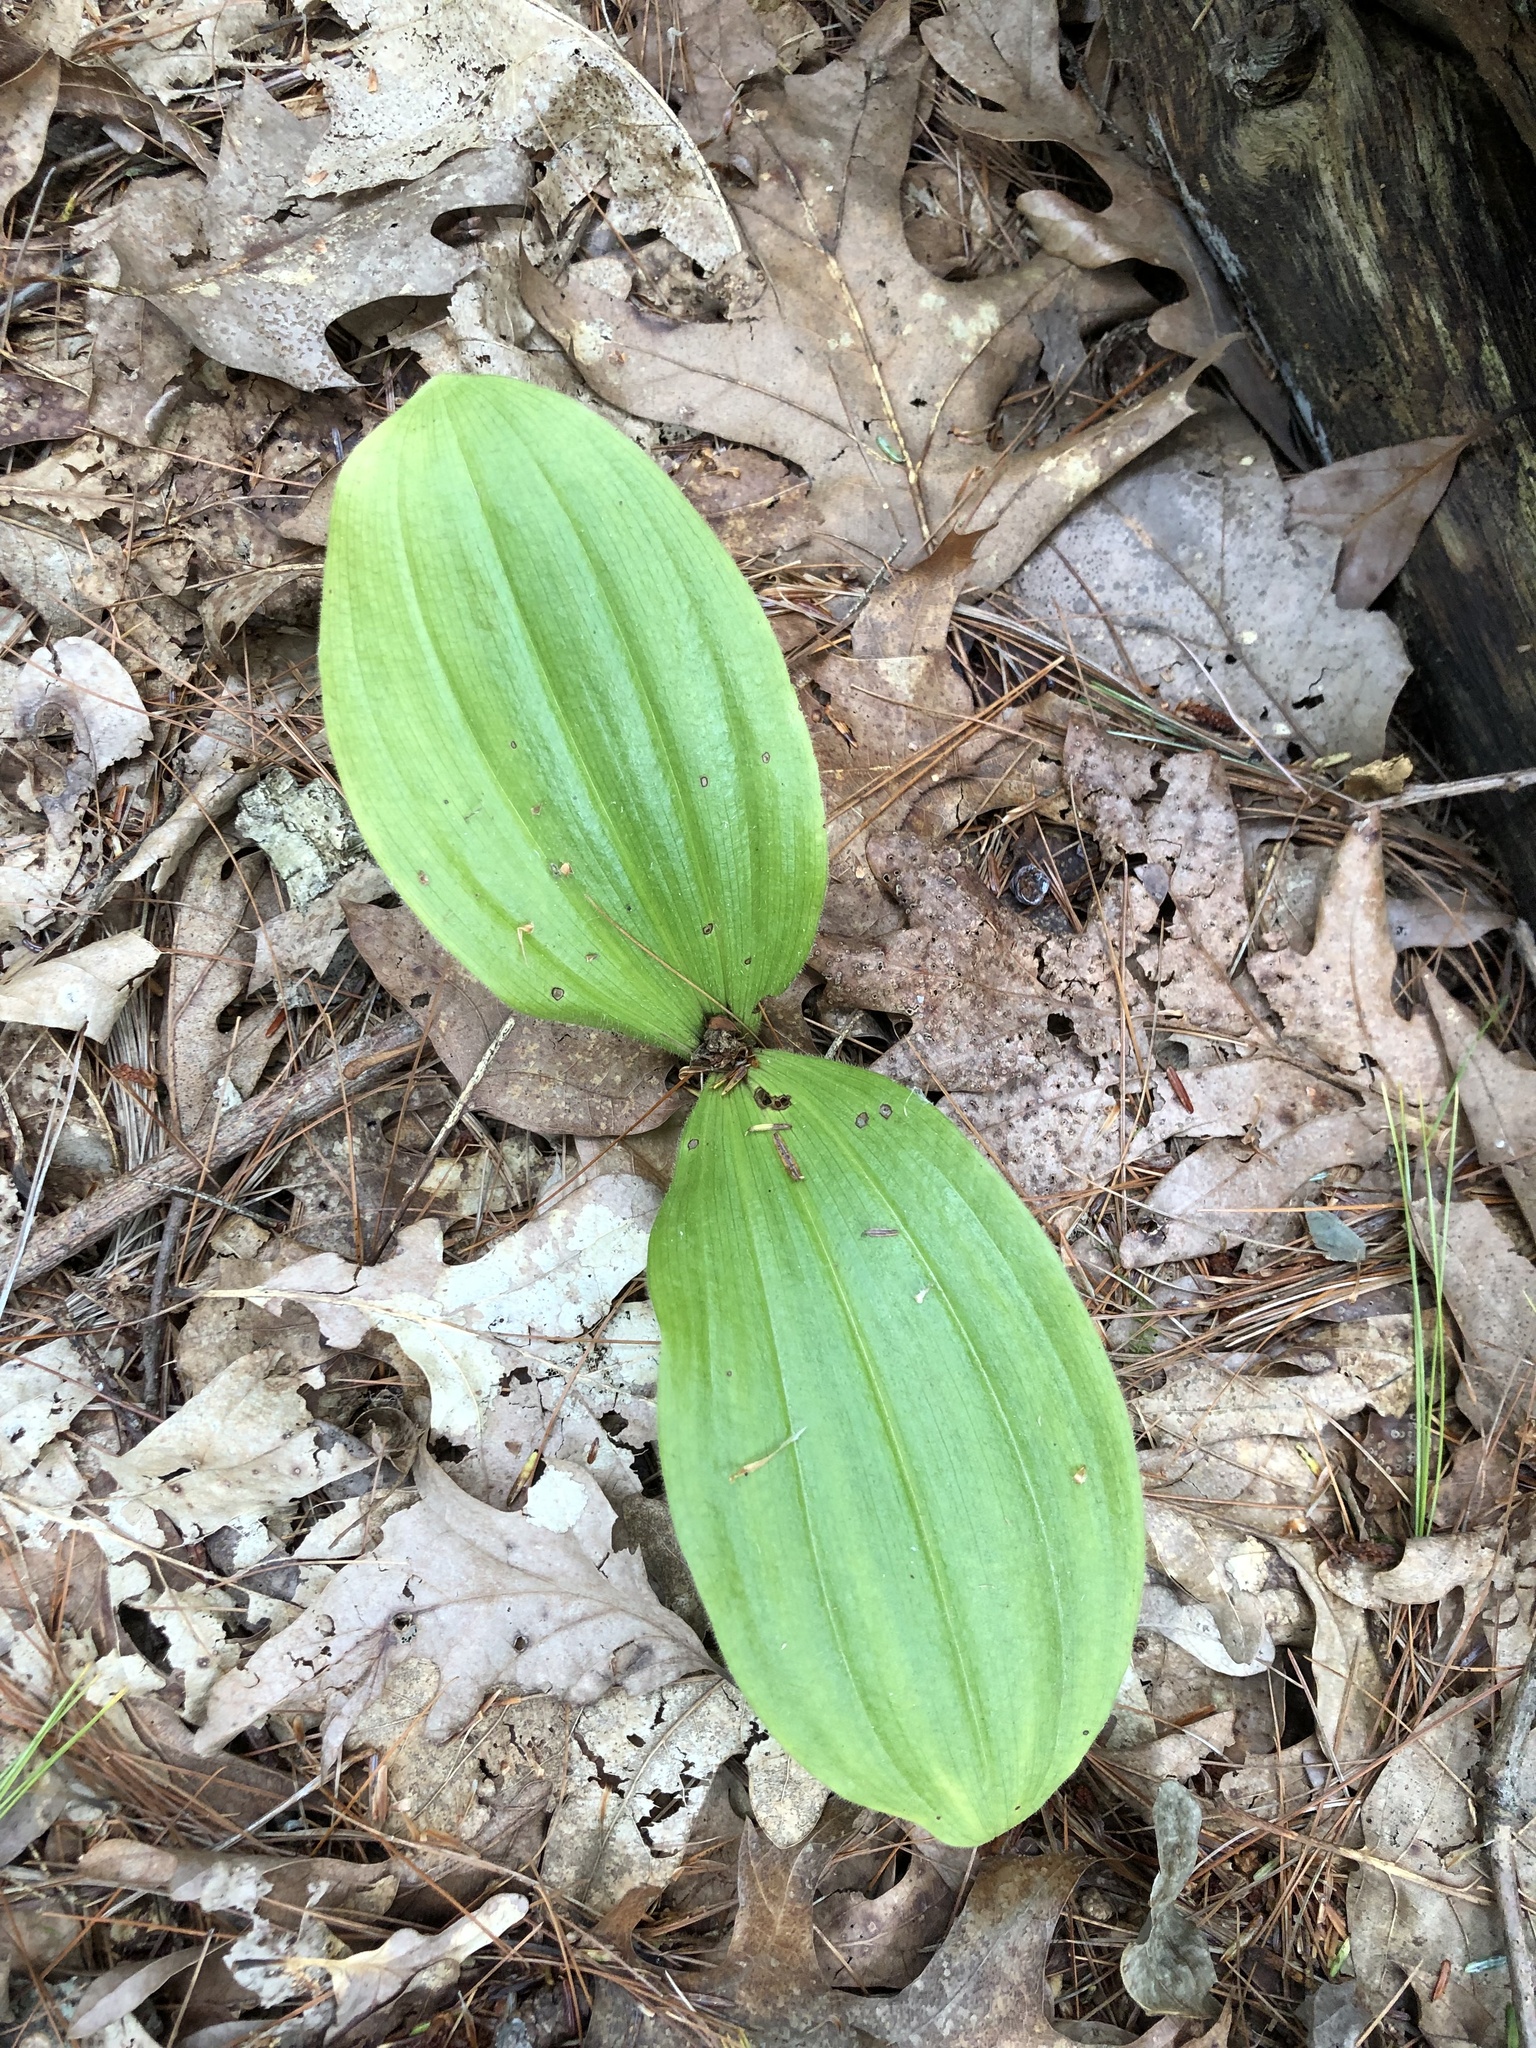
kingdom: Plantae
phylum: Tracheophyta
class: Liliopsida
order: Asparagales
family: Orchidaceae
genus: Cypripedium
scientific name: Cypripedium acaule
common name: Pink lady's-slipper
